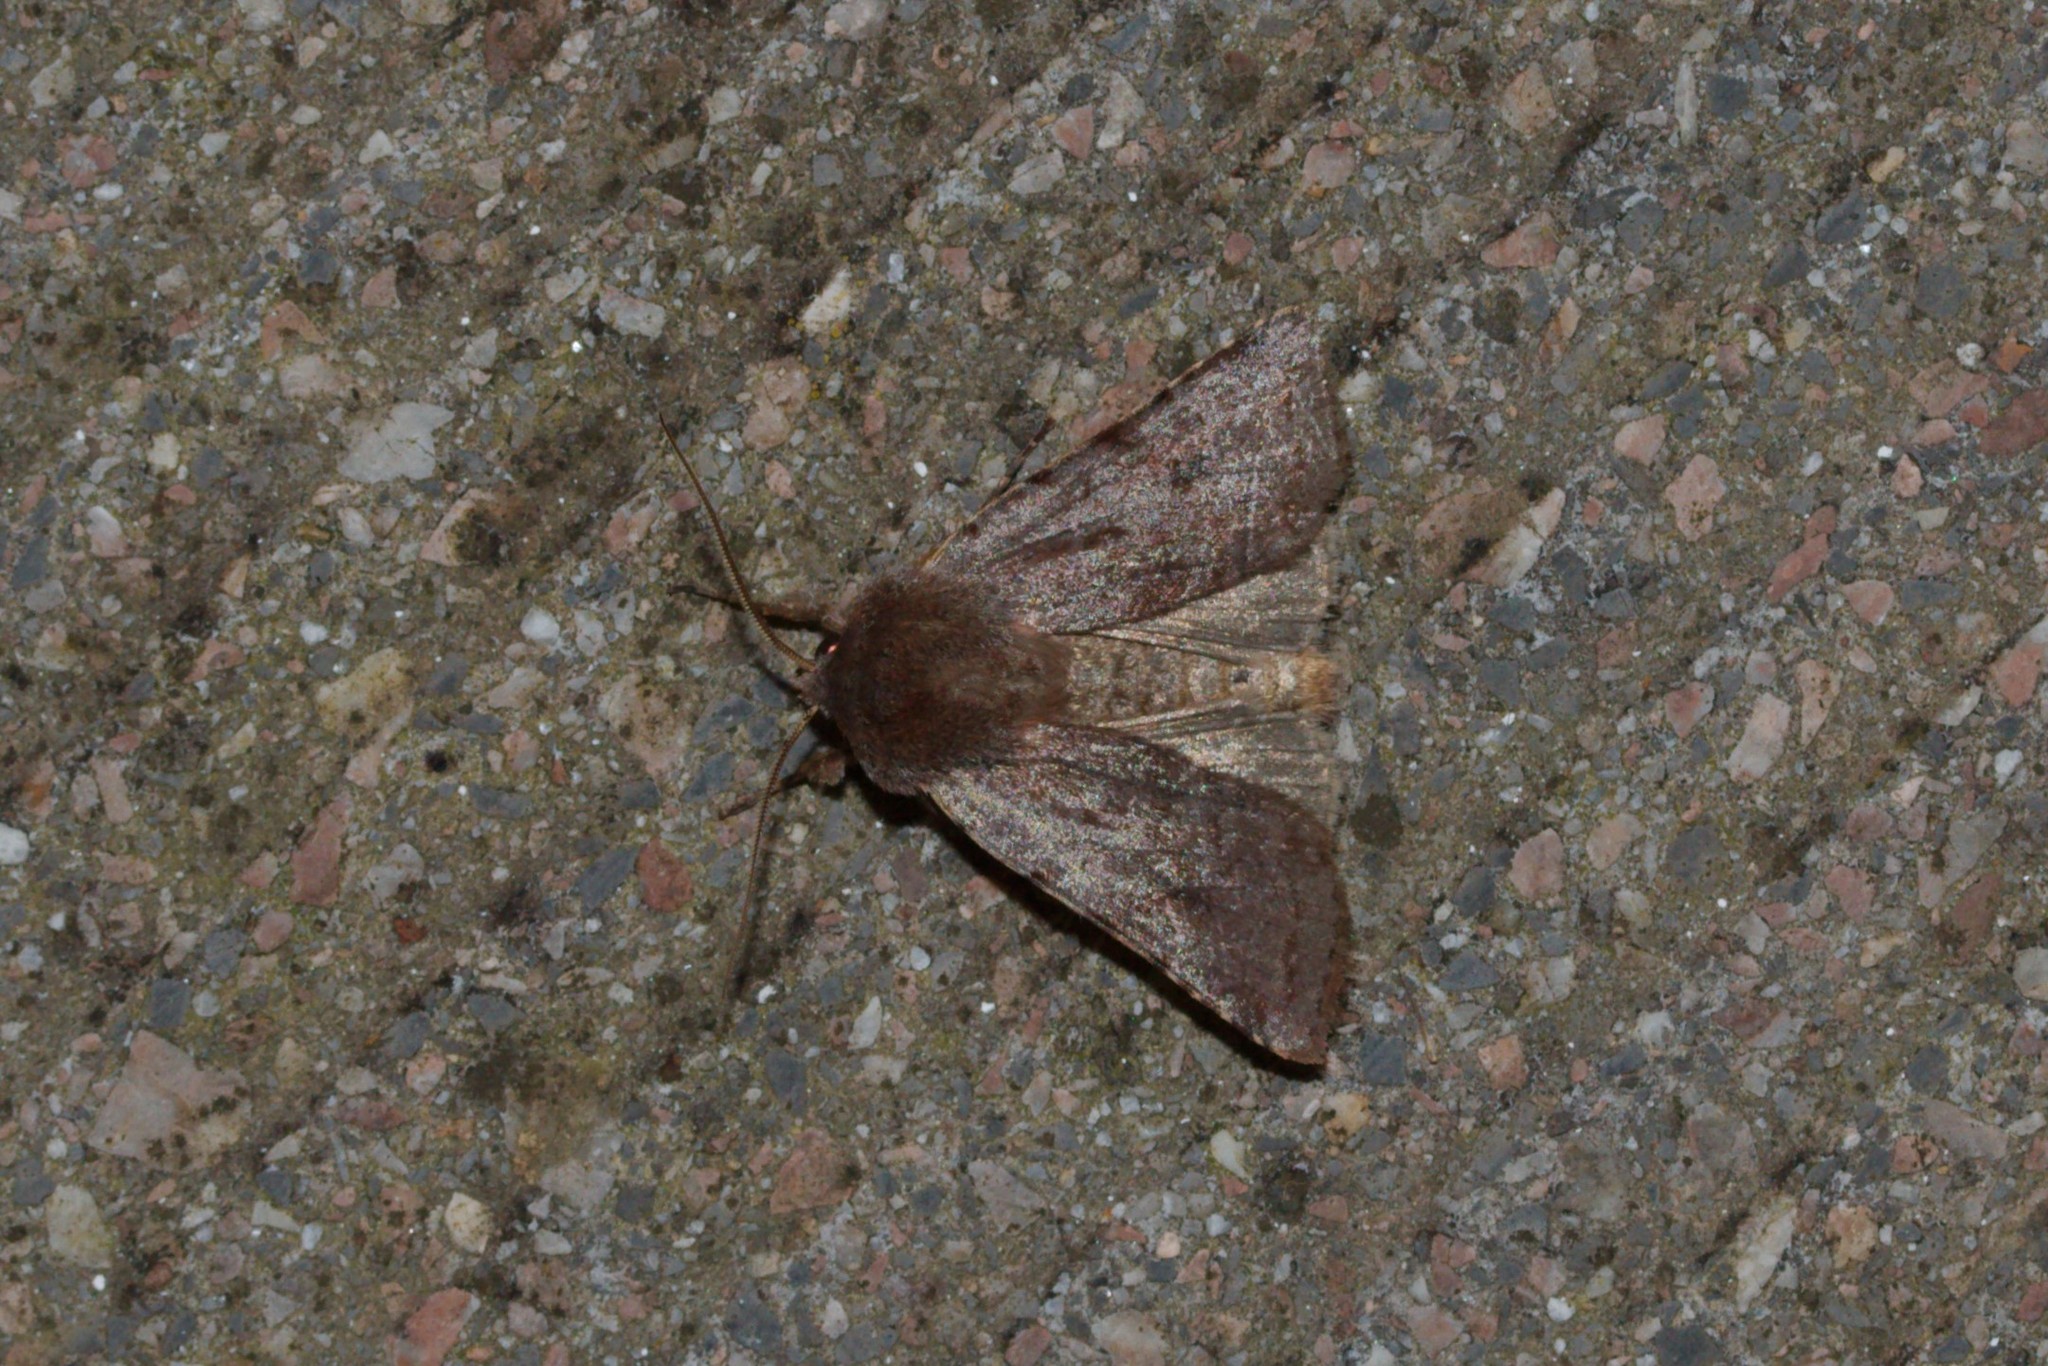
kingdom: Animalia
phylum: Arthropoda
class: Insecta
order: Lepidoptera
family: Noctuidae
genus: Cerastis
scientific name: Cerastis rubricosa
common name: Red chestnut
